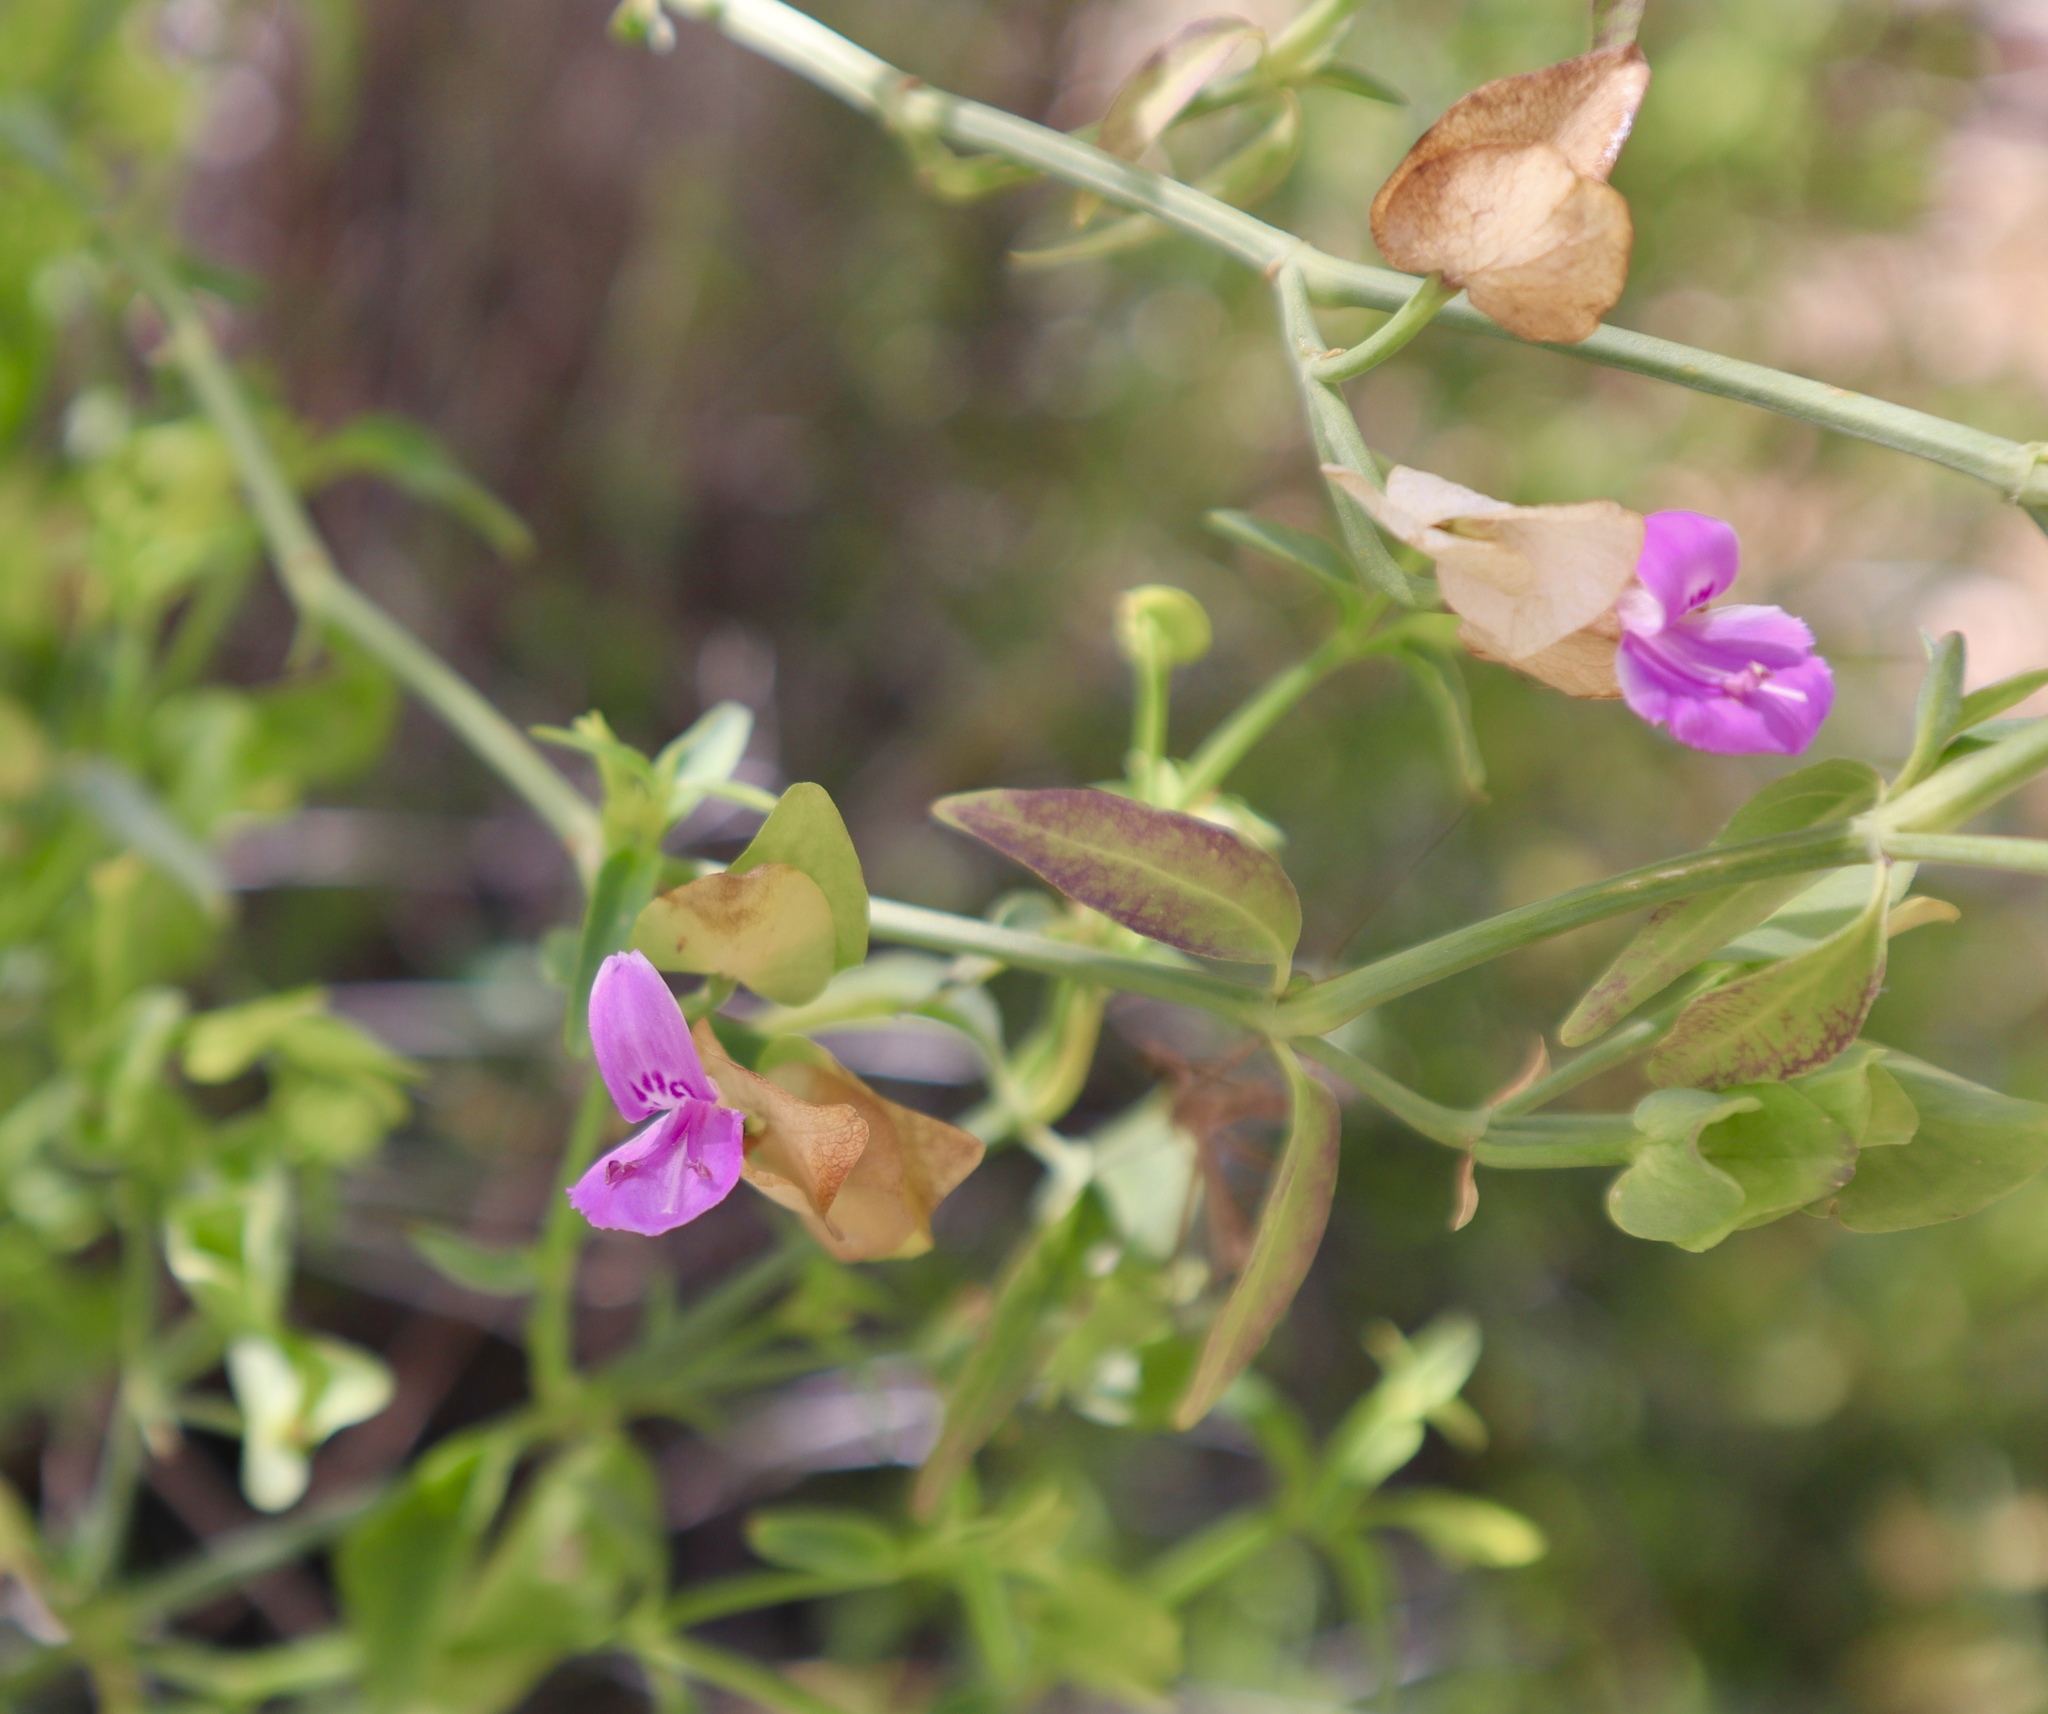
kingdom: Plantae
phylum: Tracheophyta
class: Magnoliopsida
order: Lamiales
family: Acanthaceae
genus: Dicliptera
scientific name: Dicliptera resupinata
